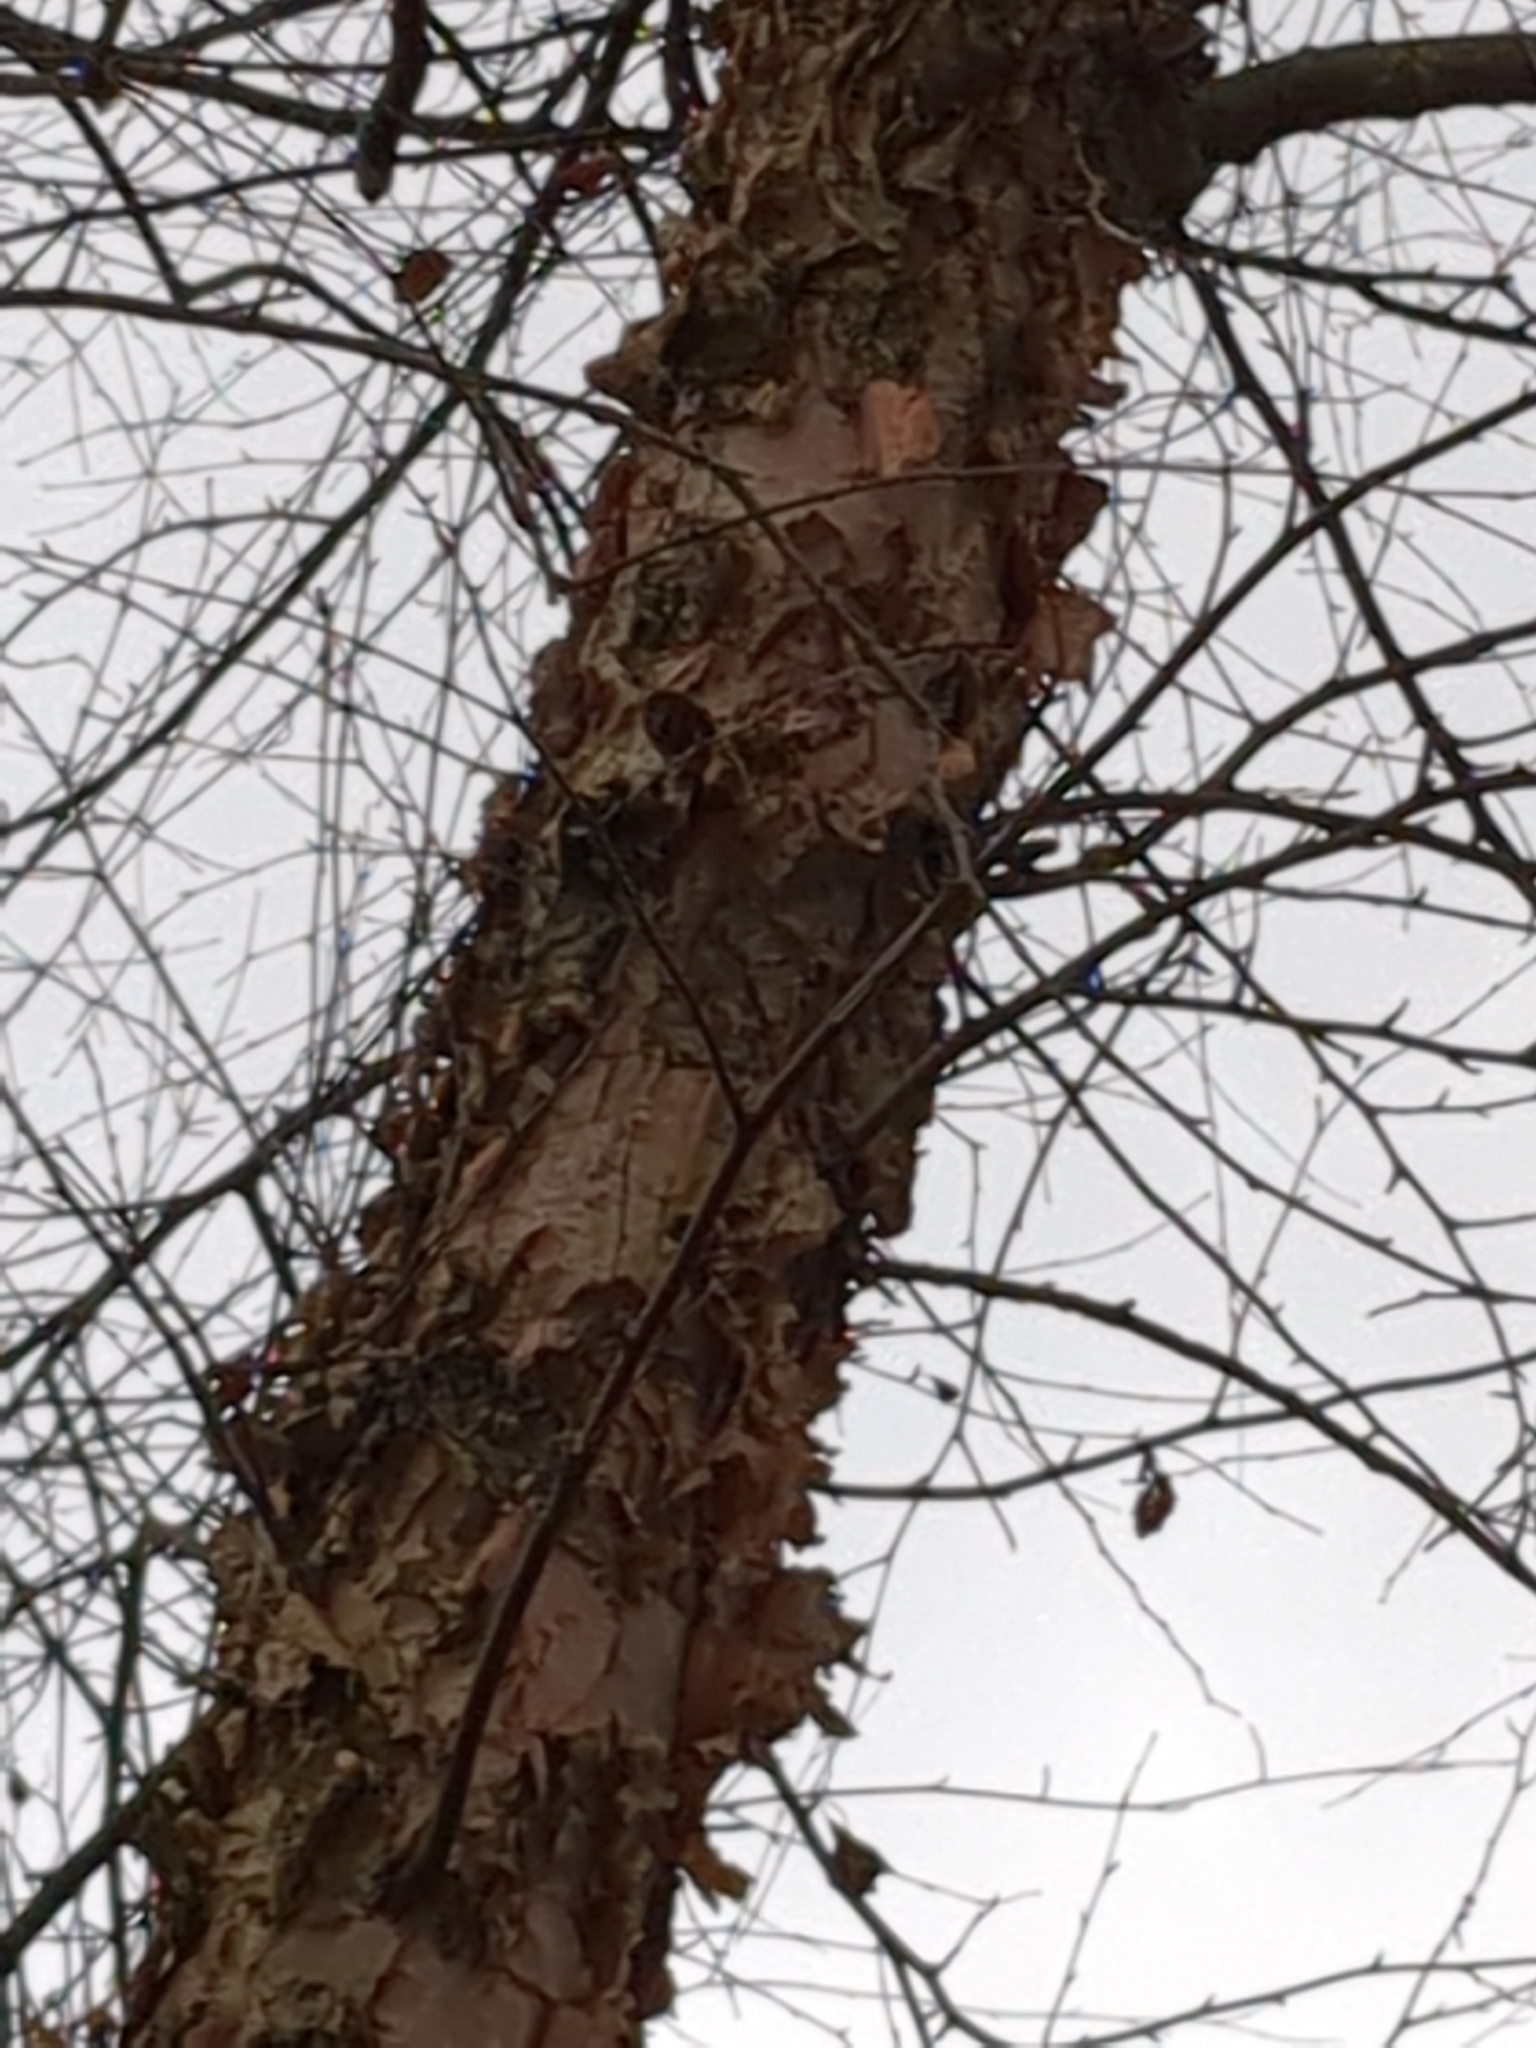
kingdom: Plantae
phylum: Tracheophyta
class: Magnoliopsida
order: Fagales
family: Betulaceae
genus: Betula
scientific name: Betula nigra
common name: Black birch
